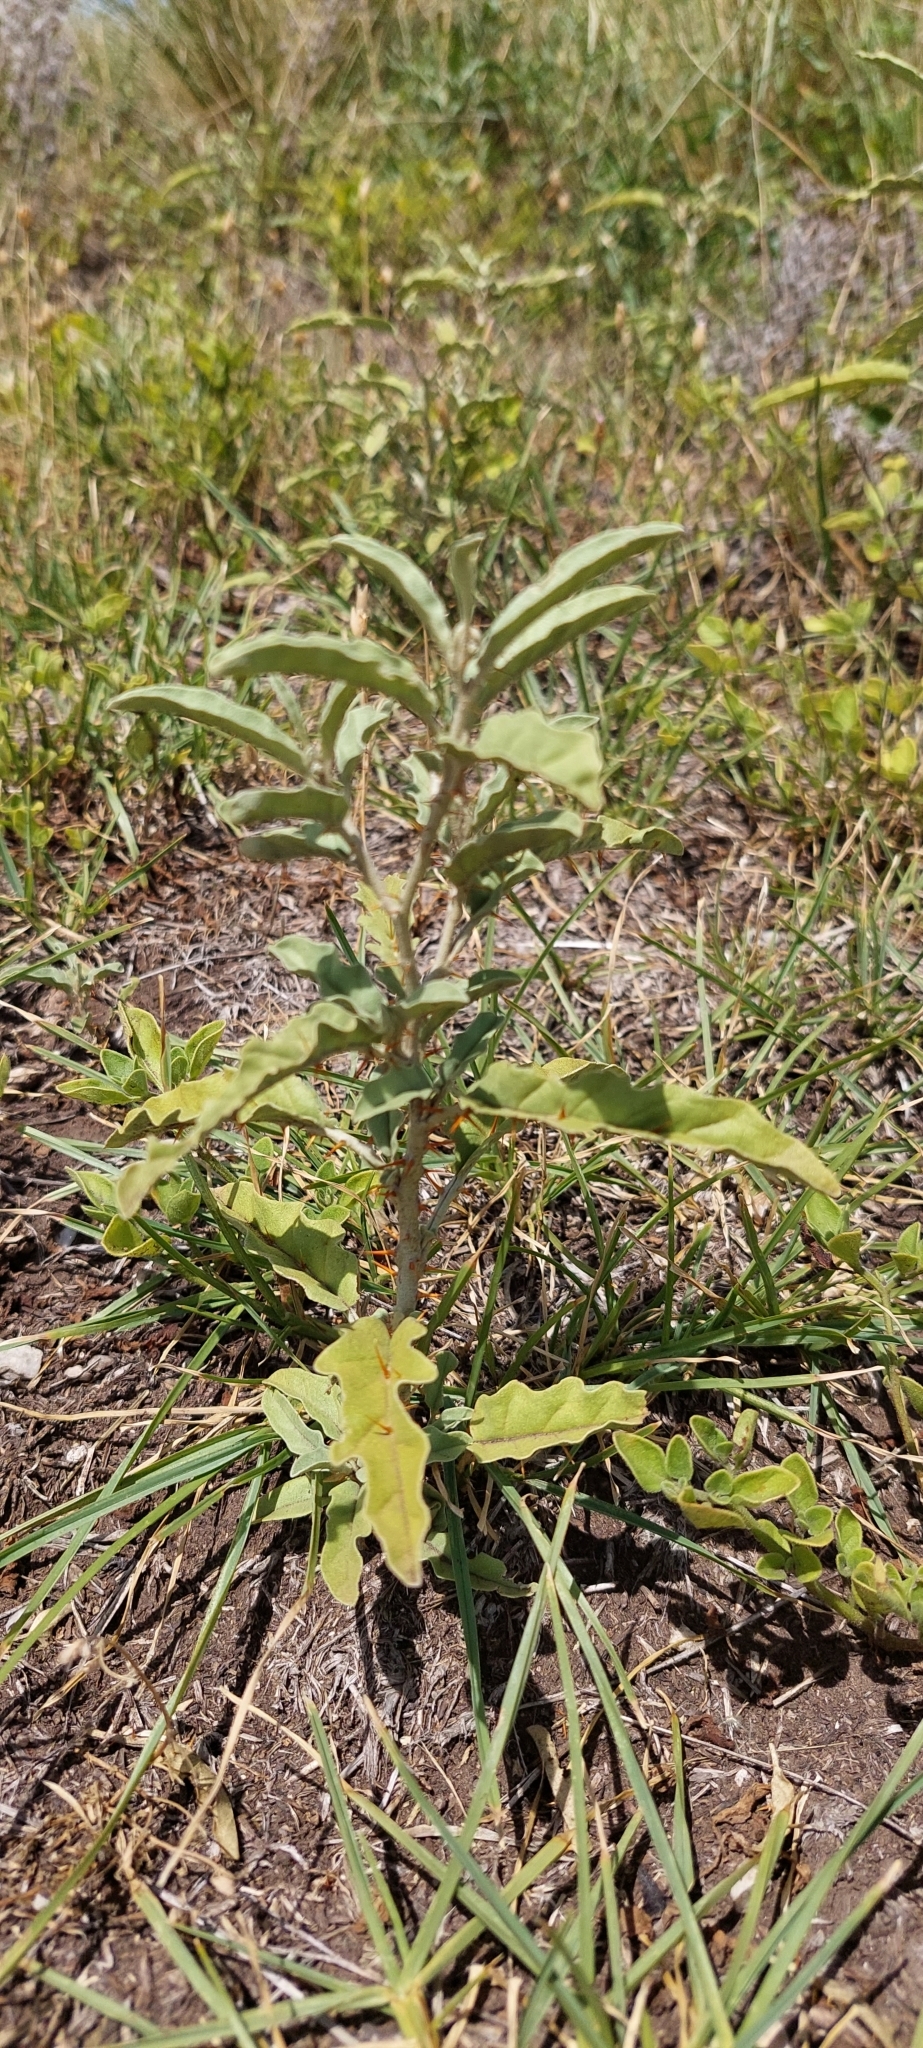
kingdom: Plantae
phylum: Tracheophyta
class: Magnoliopsida
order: Solanales
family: Solanaceae
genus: Solanum
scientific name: Solanum elaeagnifolium
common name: Silverleaf nightshade
